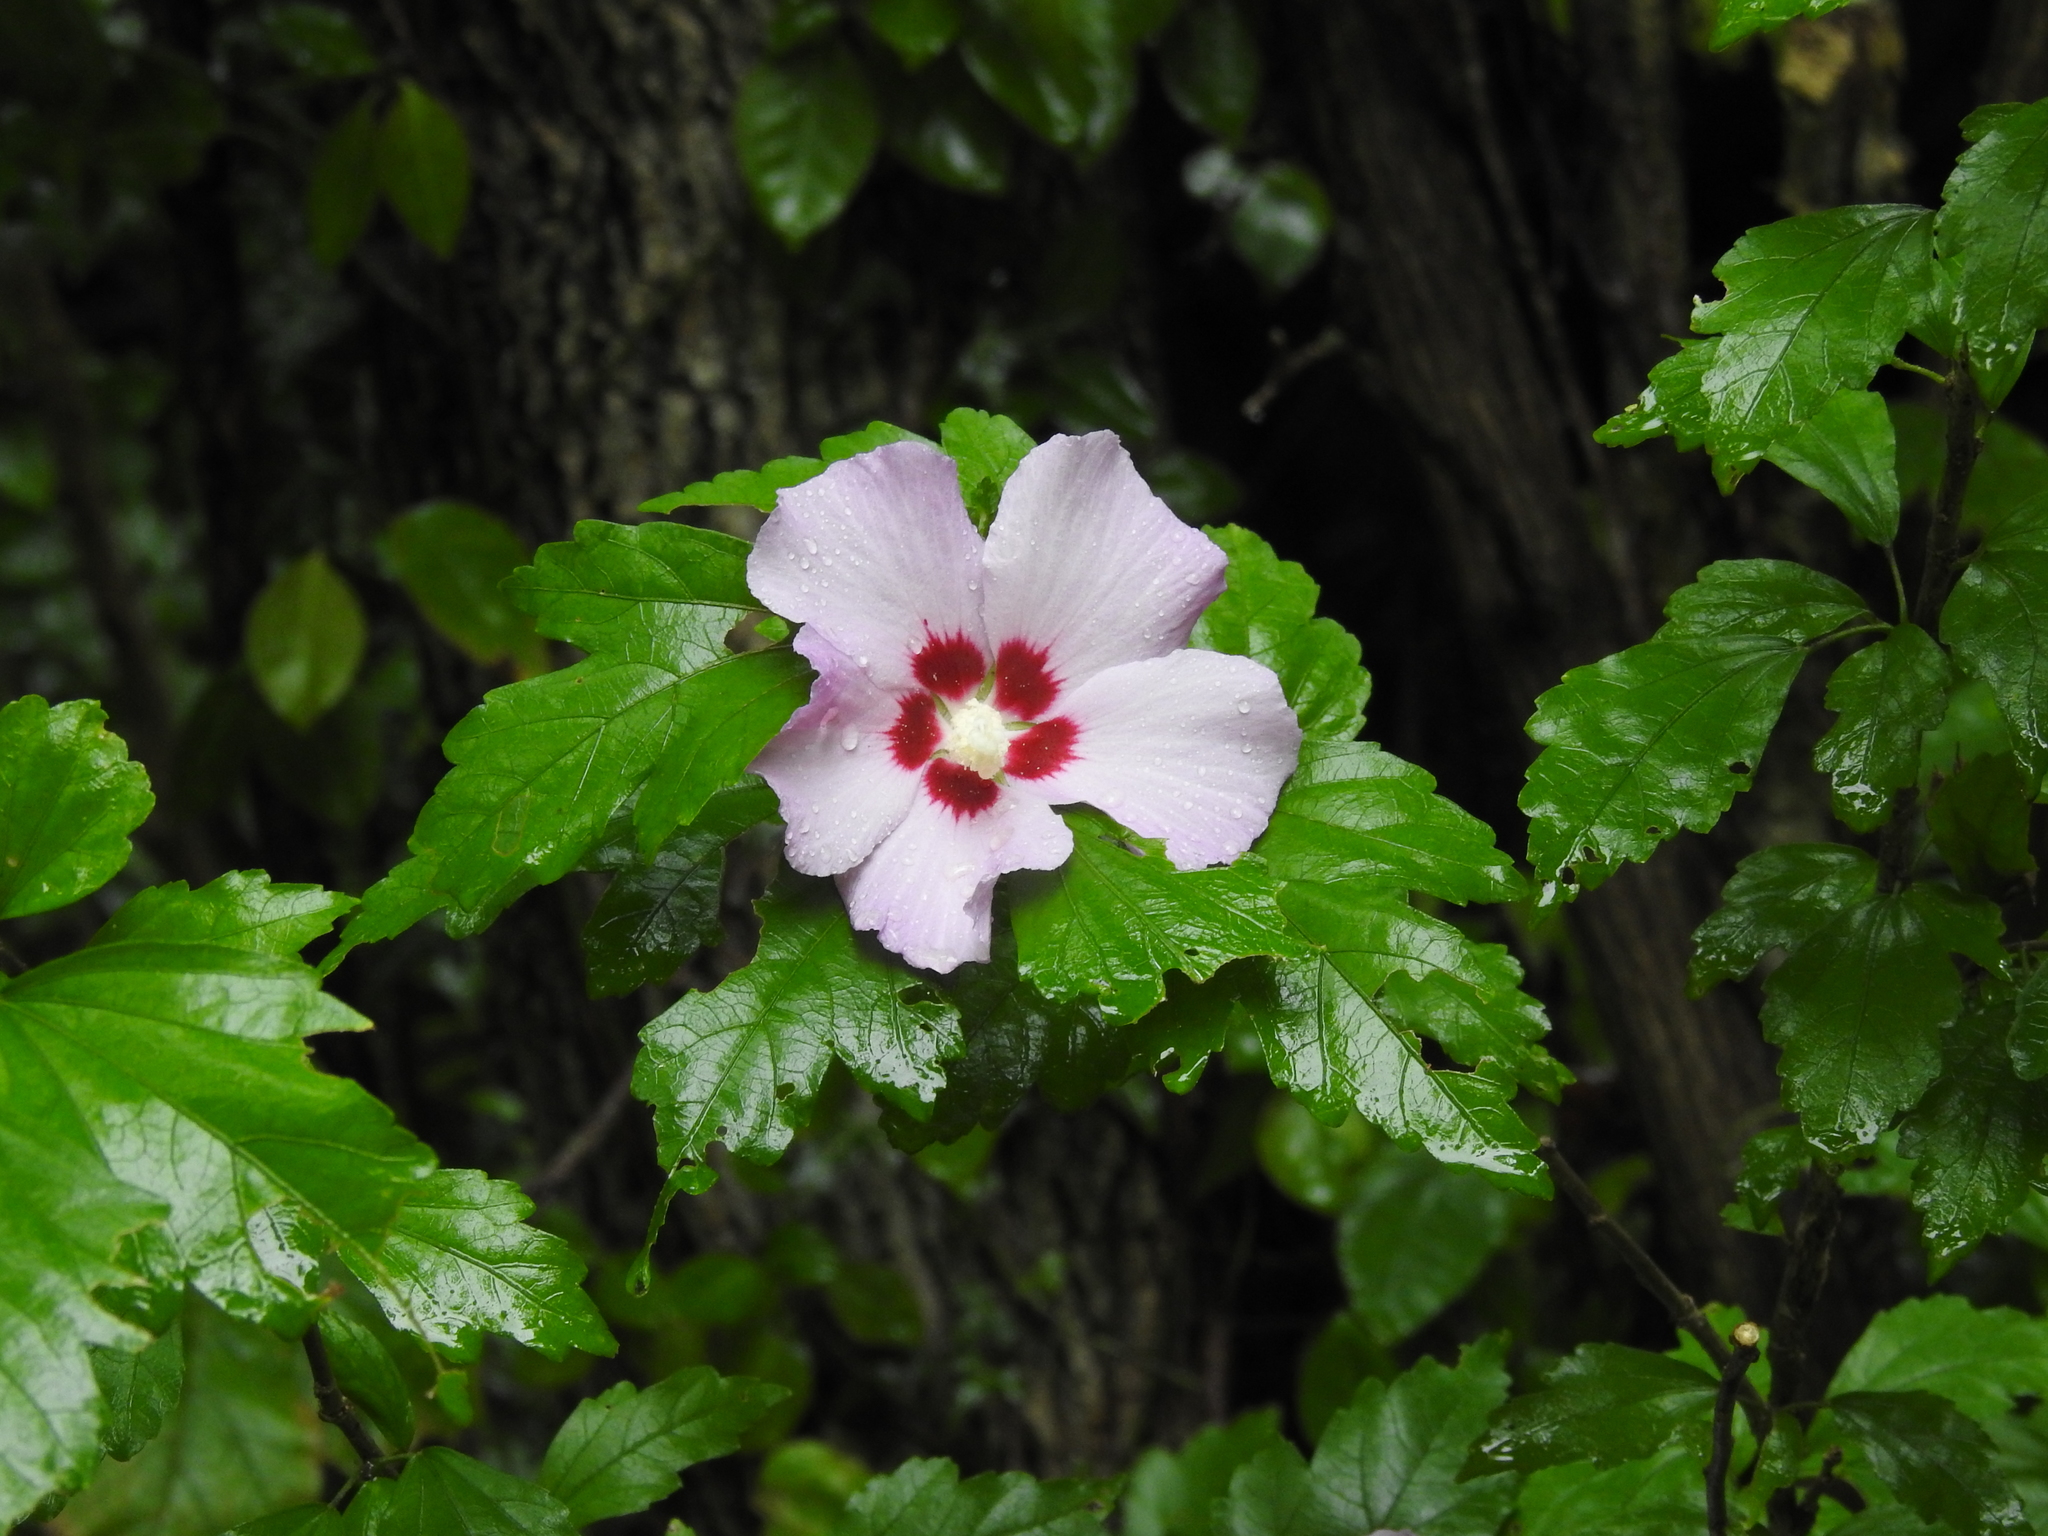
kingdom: Plantae
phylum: Tracheophyta
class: Magnoliopsida
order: Malvales
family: Malvaceae
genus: Hibiscus
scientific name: Hibiscus syriacus
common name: Syrian ketmia
